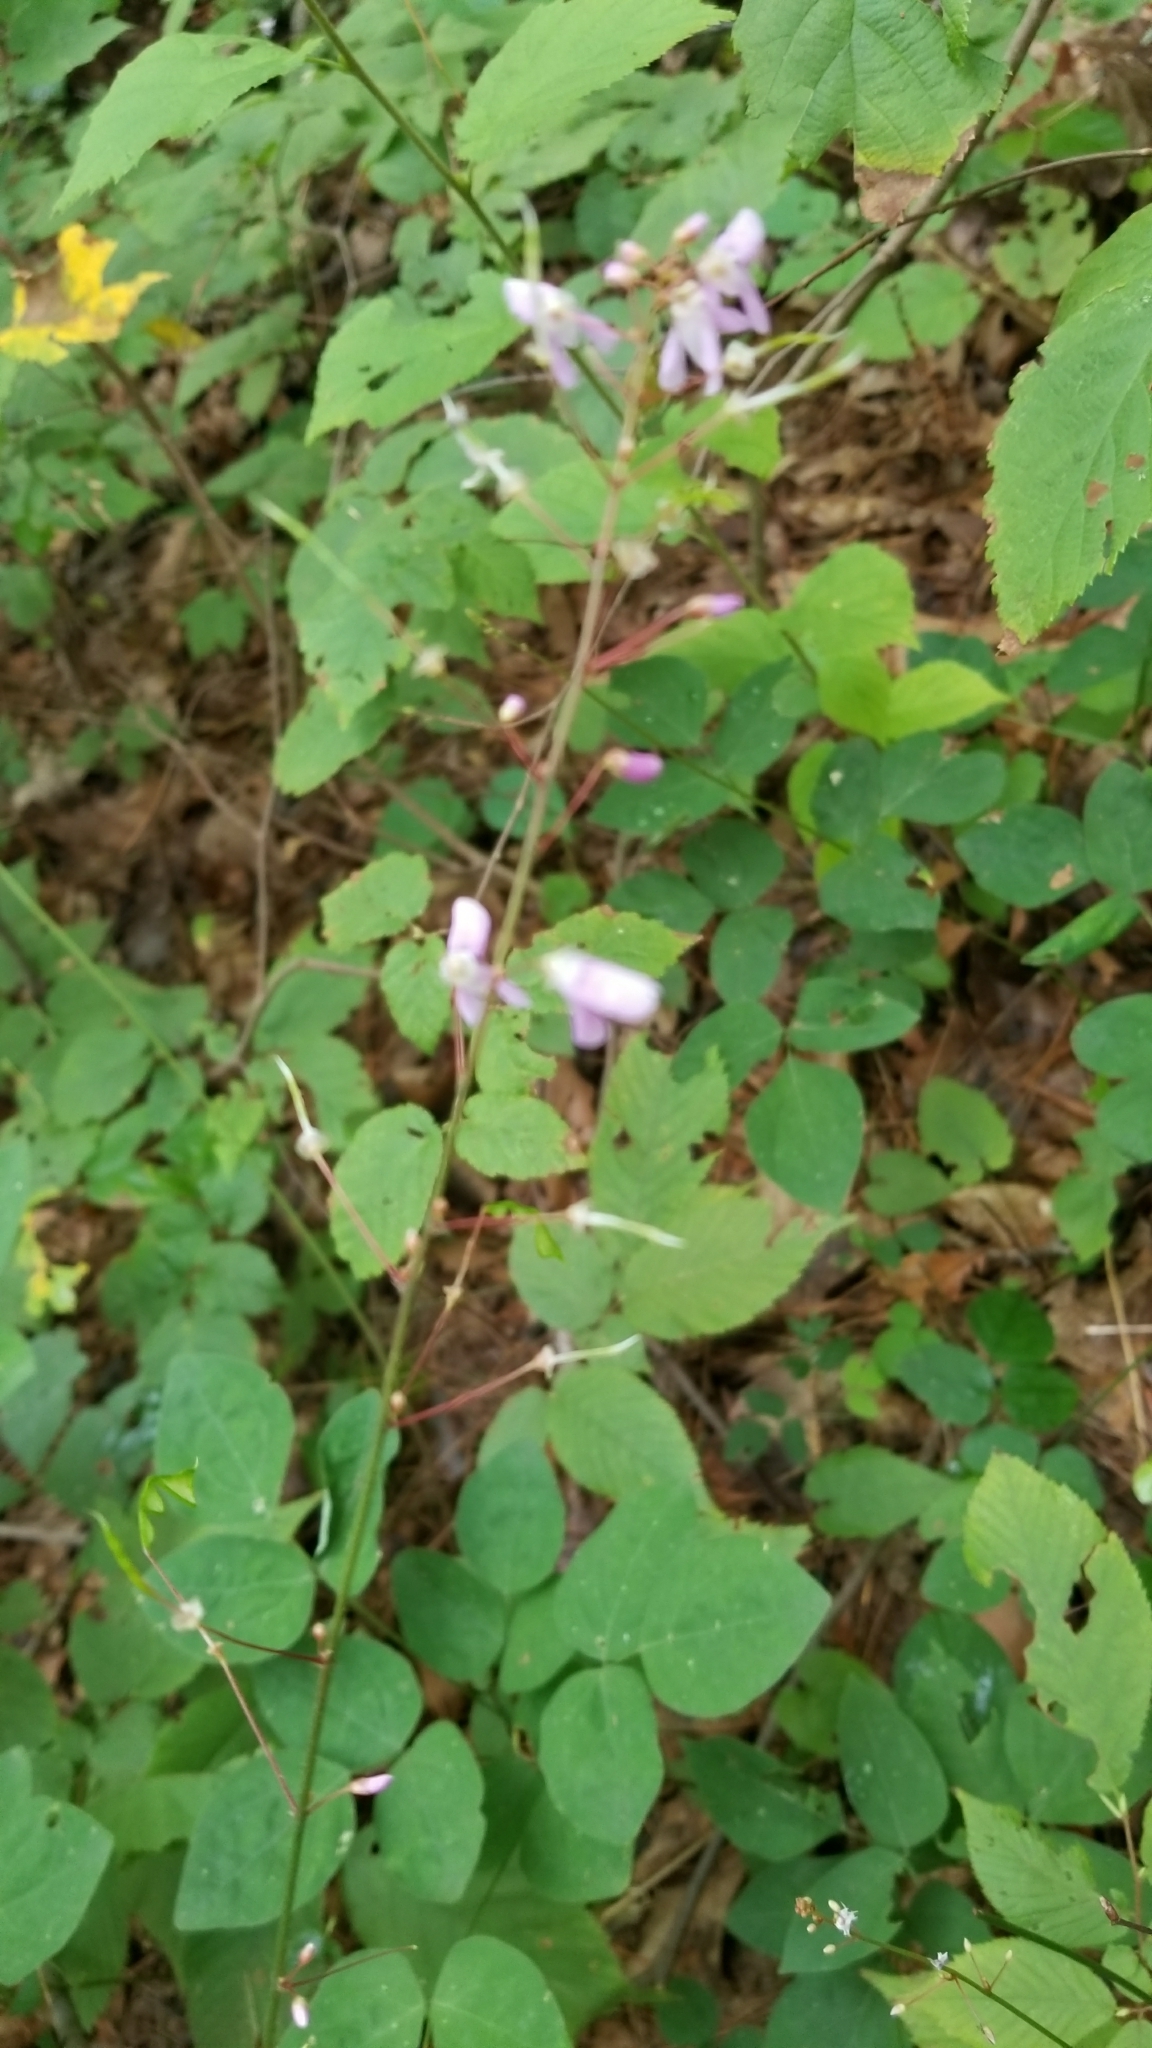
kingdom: Plantae
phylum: Tracheophyta
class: Magnoliopsida
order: Fabales
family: Fabaceae
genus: Hylodesmum
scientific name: Hylodesmum nudiflorum
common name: Bare-stemmed tick-trefoil
